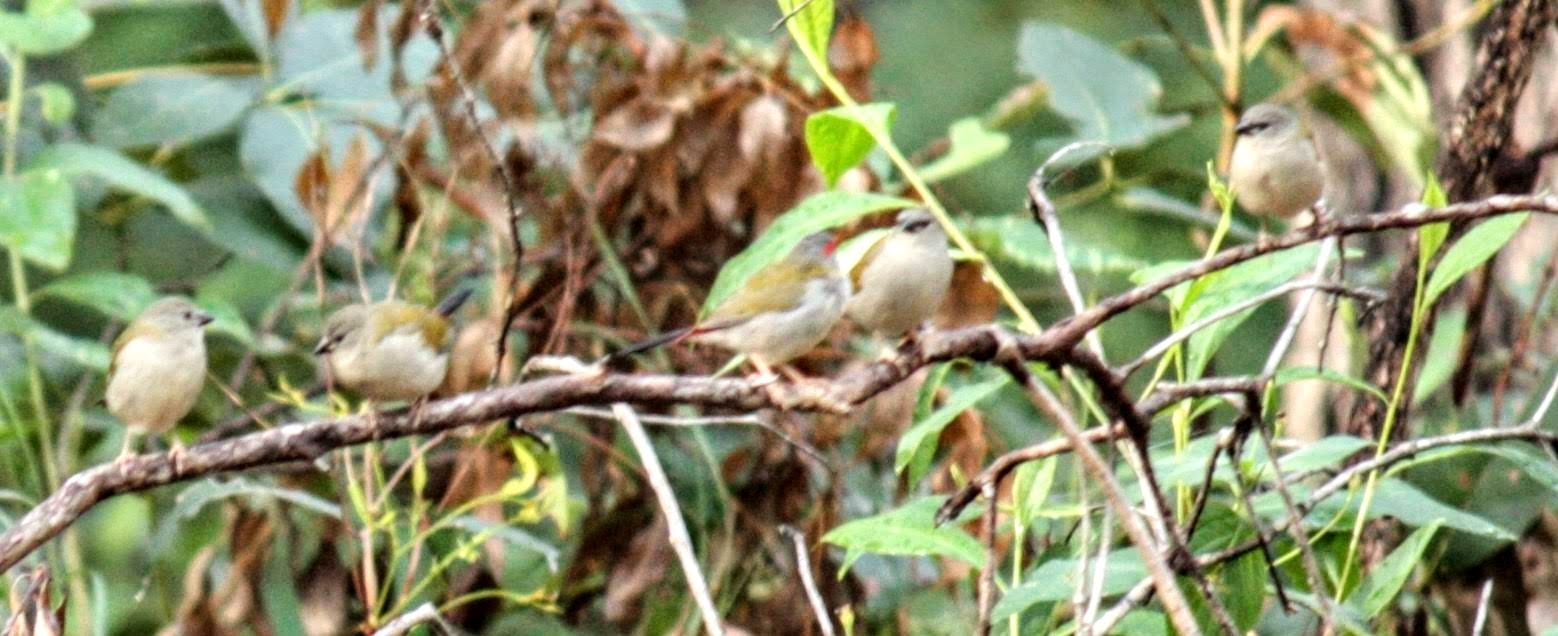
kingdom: Animalia
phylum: Chordata
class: Aves
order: Passeriformes
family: Estrildidae
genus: Neochmia
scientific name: Neochmia temporalis
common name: Red-browed finch
